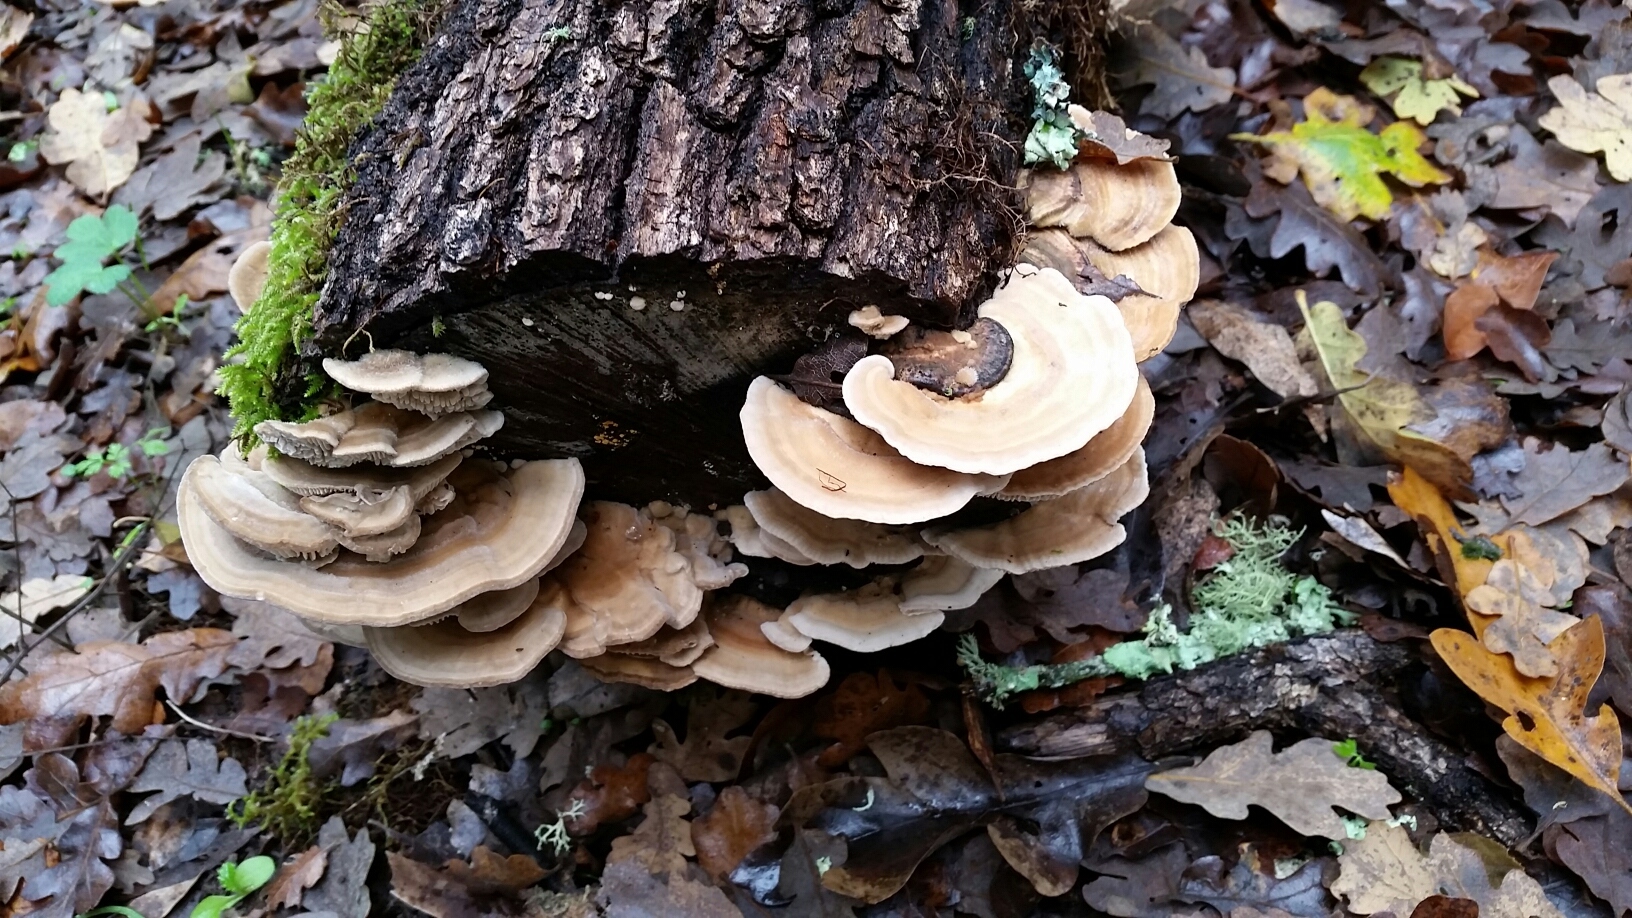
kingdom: Fungi
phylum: Basidiomycota
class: Agaricomycetes
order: Polyporales
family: Polyporaceae
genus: Lenzites
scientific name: Lenzites betulinus
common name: Birch mazegill
